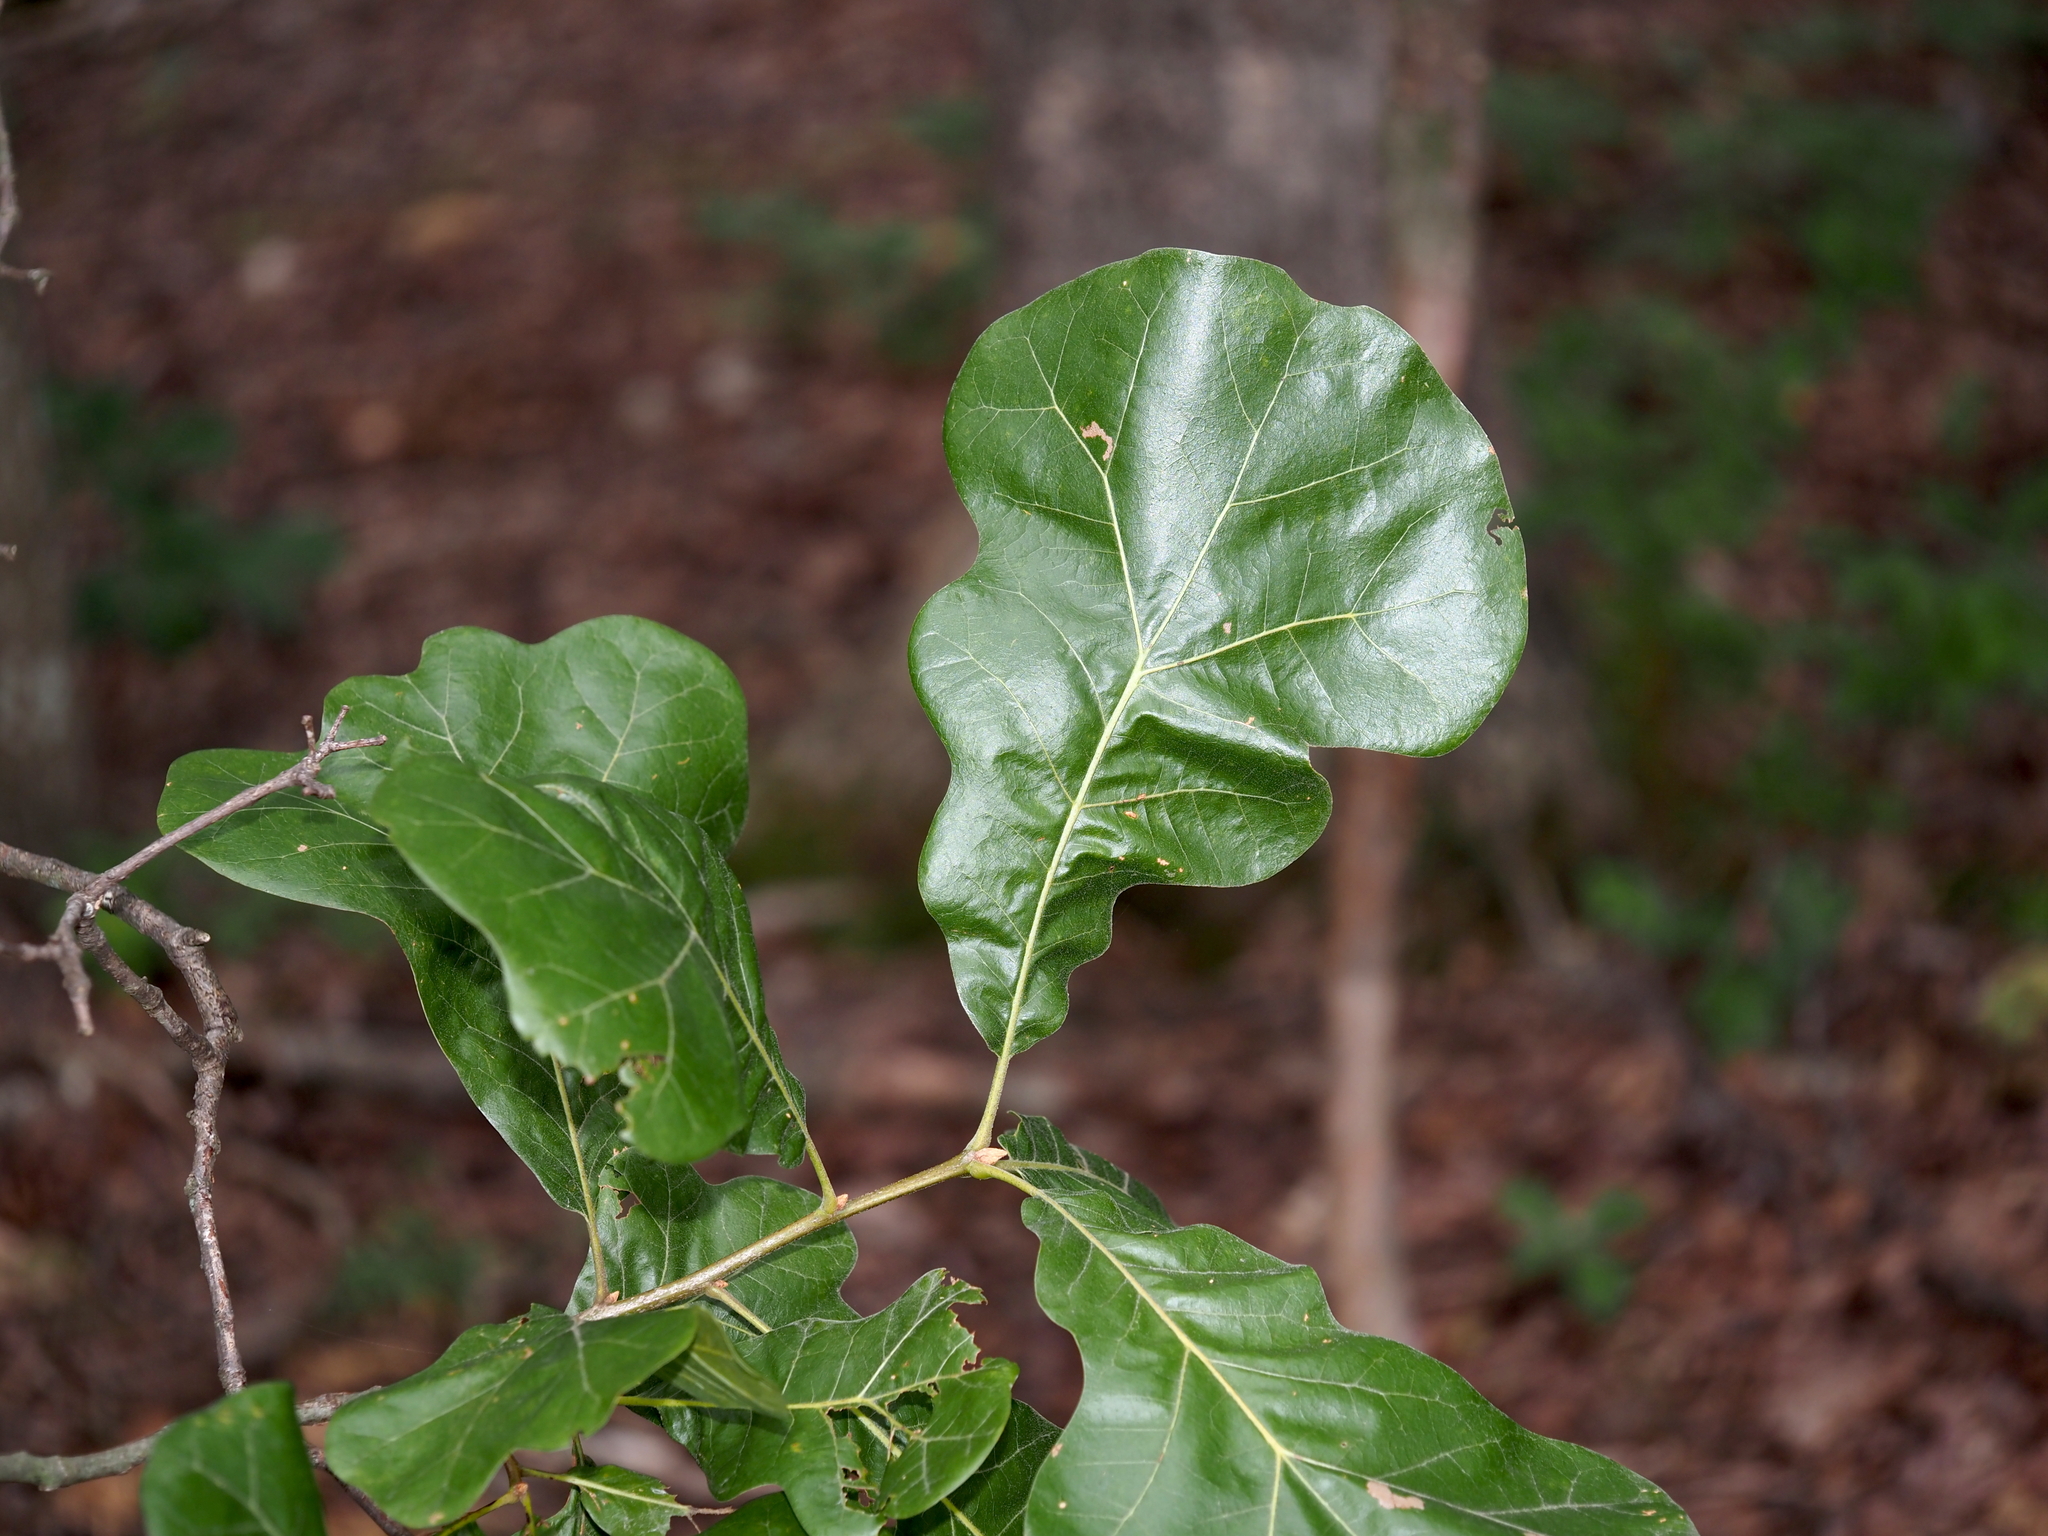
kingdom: Plantae
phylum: Tracheophyta
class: Magnoliopsida
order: Fagales
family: Fagaceae
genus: Quercus
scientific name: Quercus marilandica
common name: Blackjack oak
